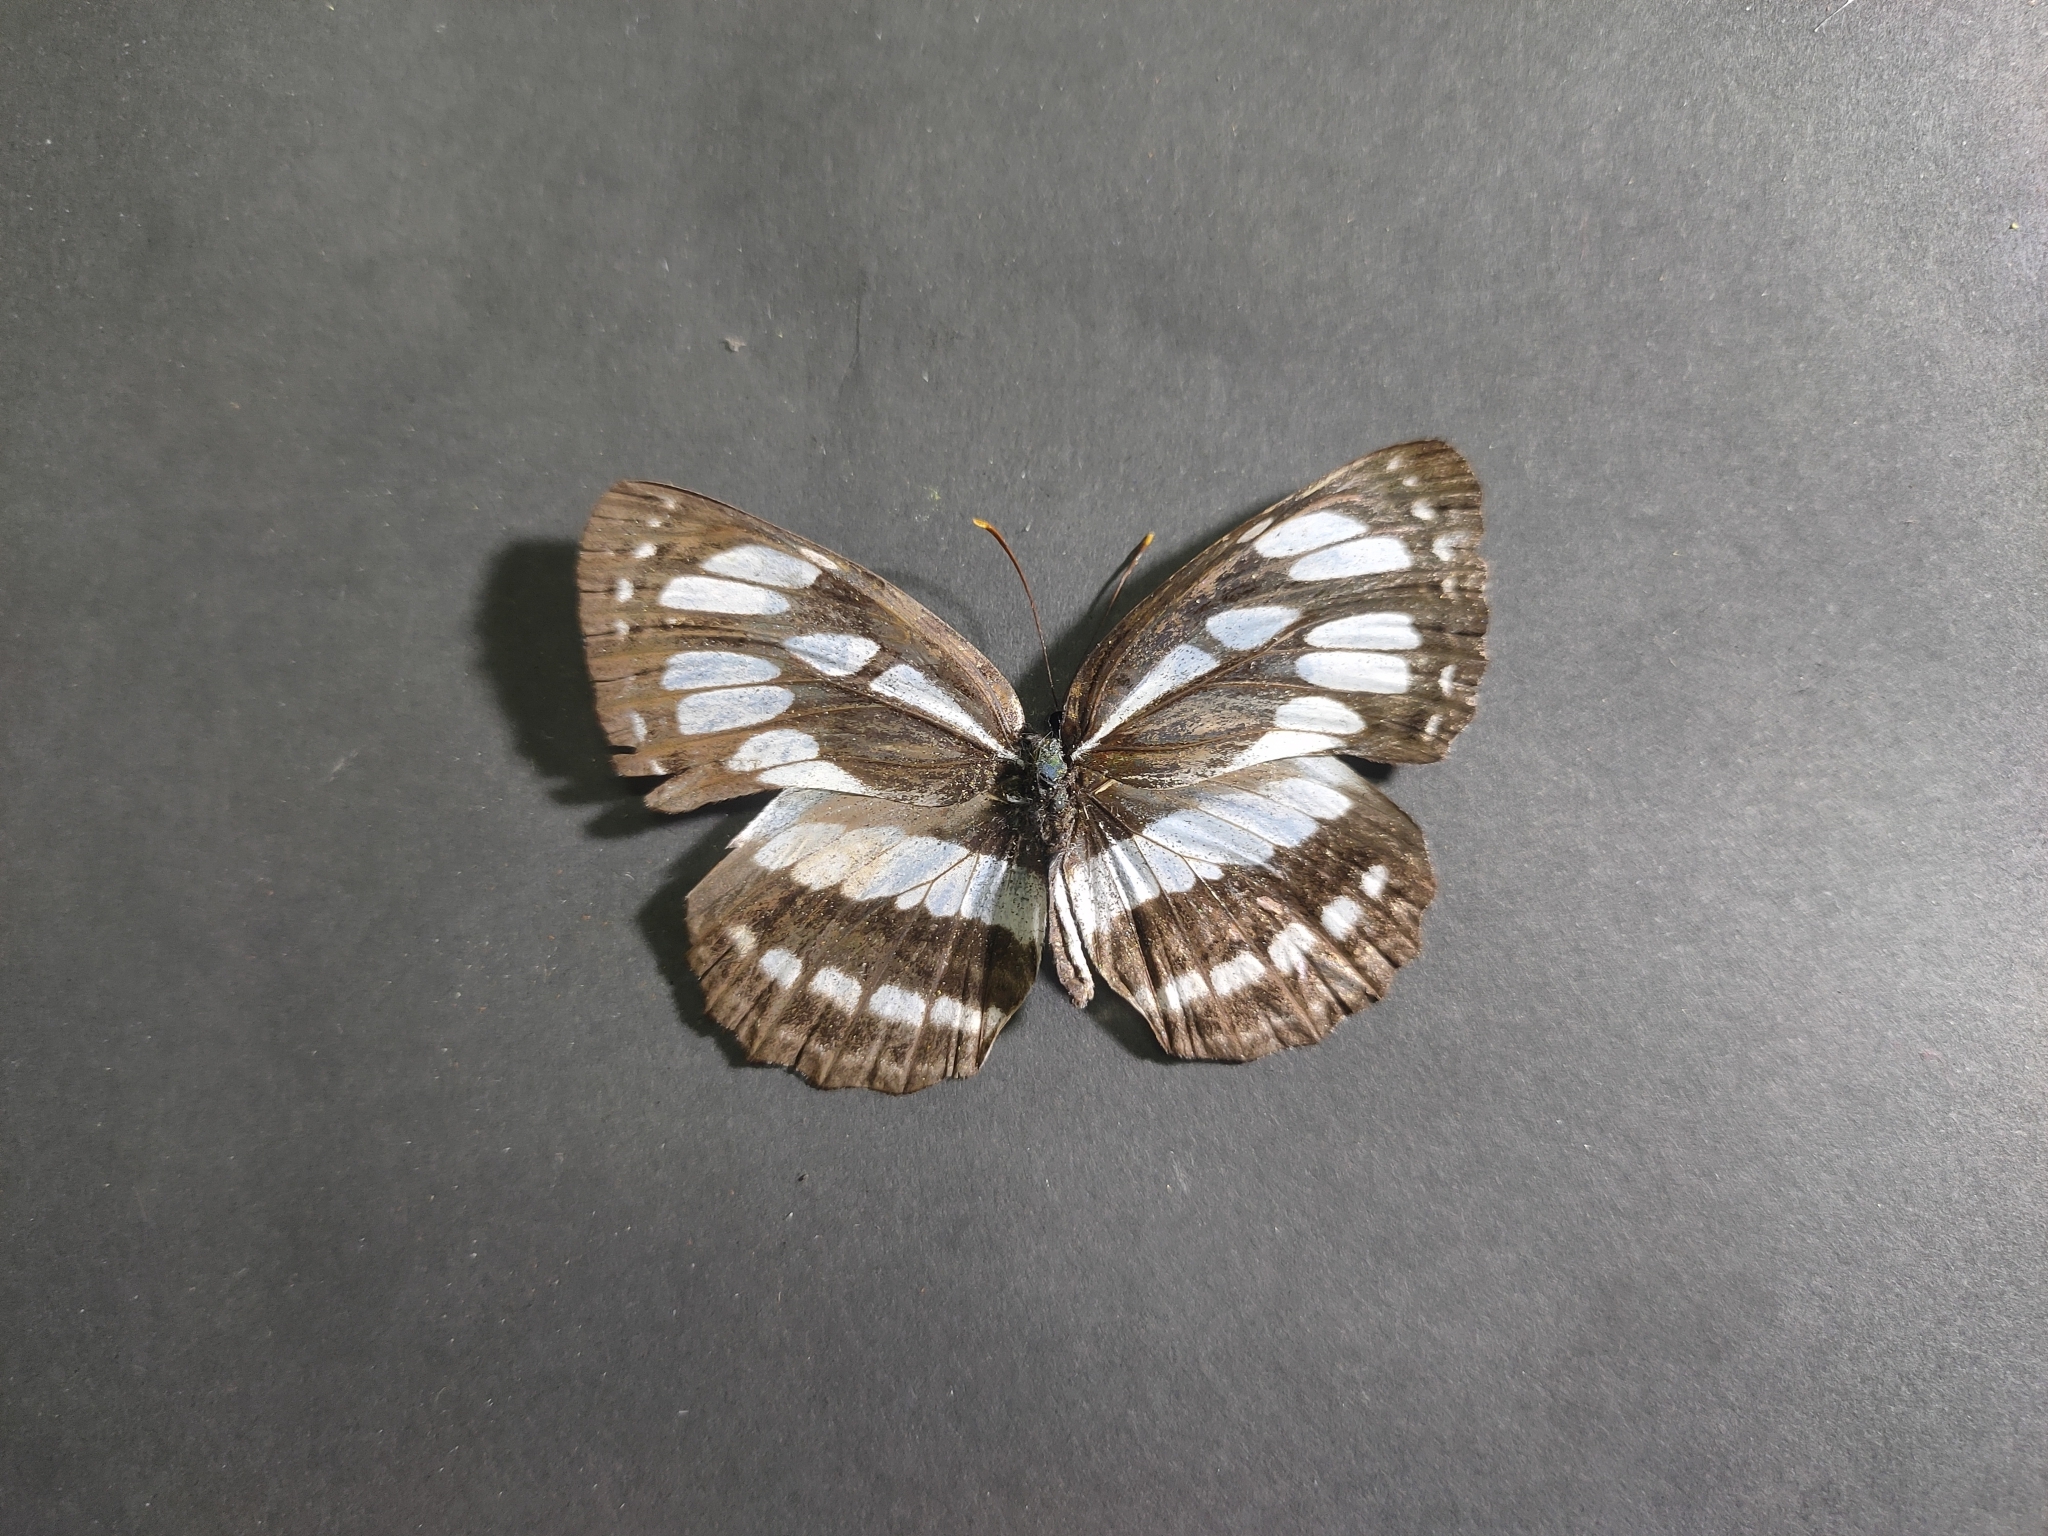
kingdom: Animalia
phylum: Arthropoda
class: Insecta
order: Lepidoptera
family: Nymphalidae
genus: Neptis
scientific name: Neptis hylas
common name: Common sailer
